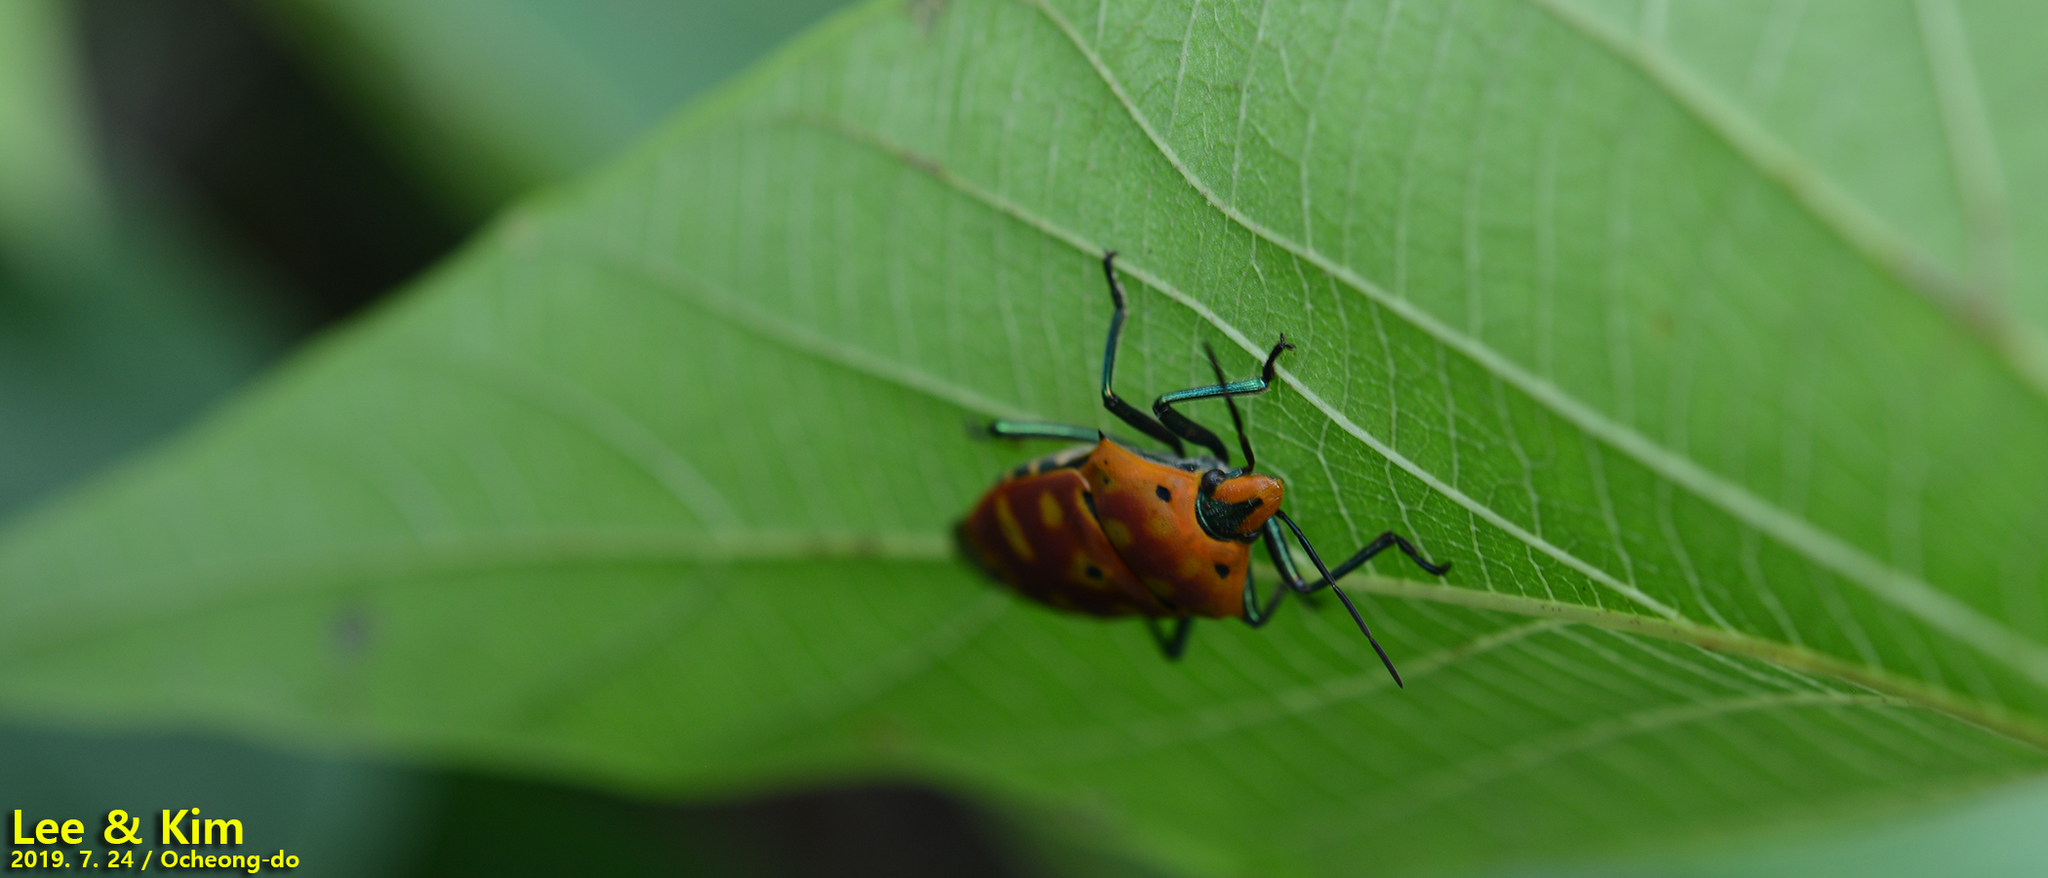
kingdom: Animalia
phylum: Arthropoda
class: Insecta
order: Hemiptera
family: Scutelleridae
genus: Cantao
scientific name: Cantao ocellatus
